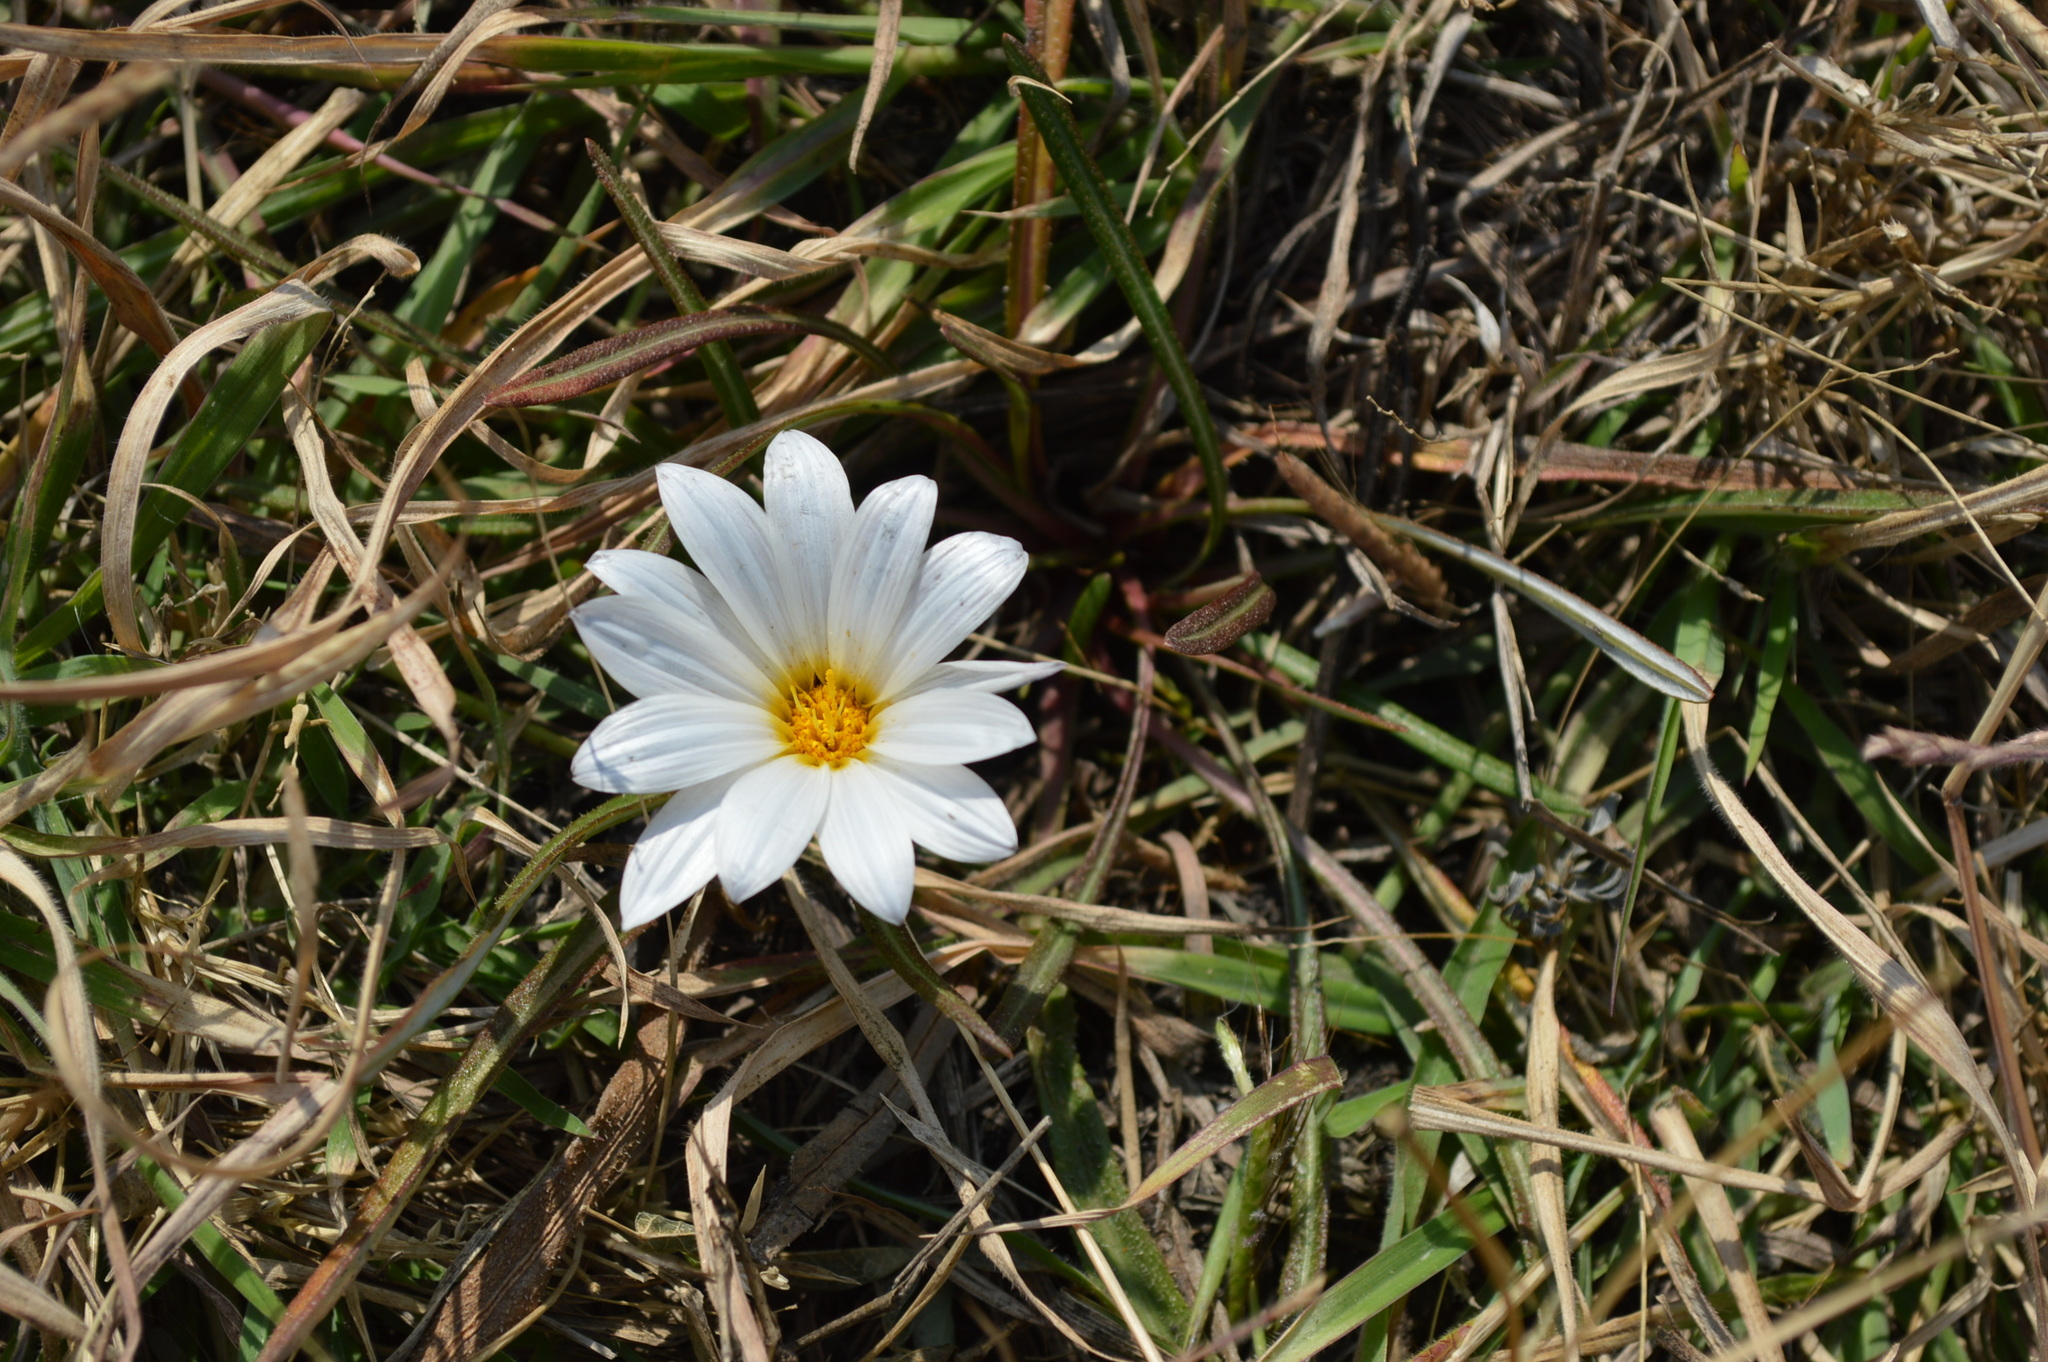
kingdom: Plantae
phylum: Tracheophyta
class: Magnoliopsida
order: Asterales
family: Asteraceae
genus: Gazania
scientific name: Gazania krebsiana
